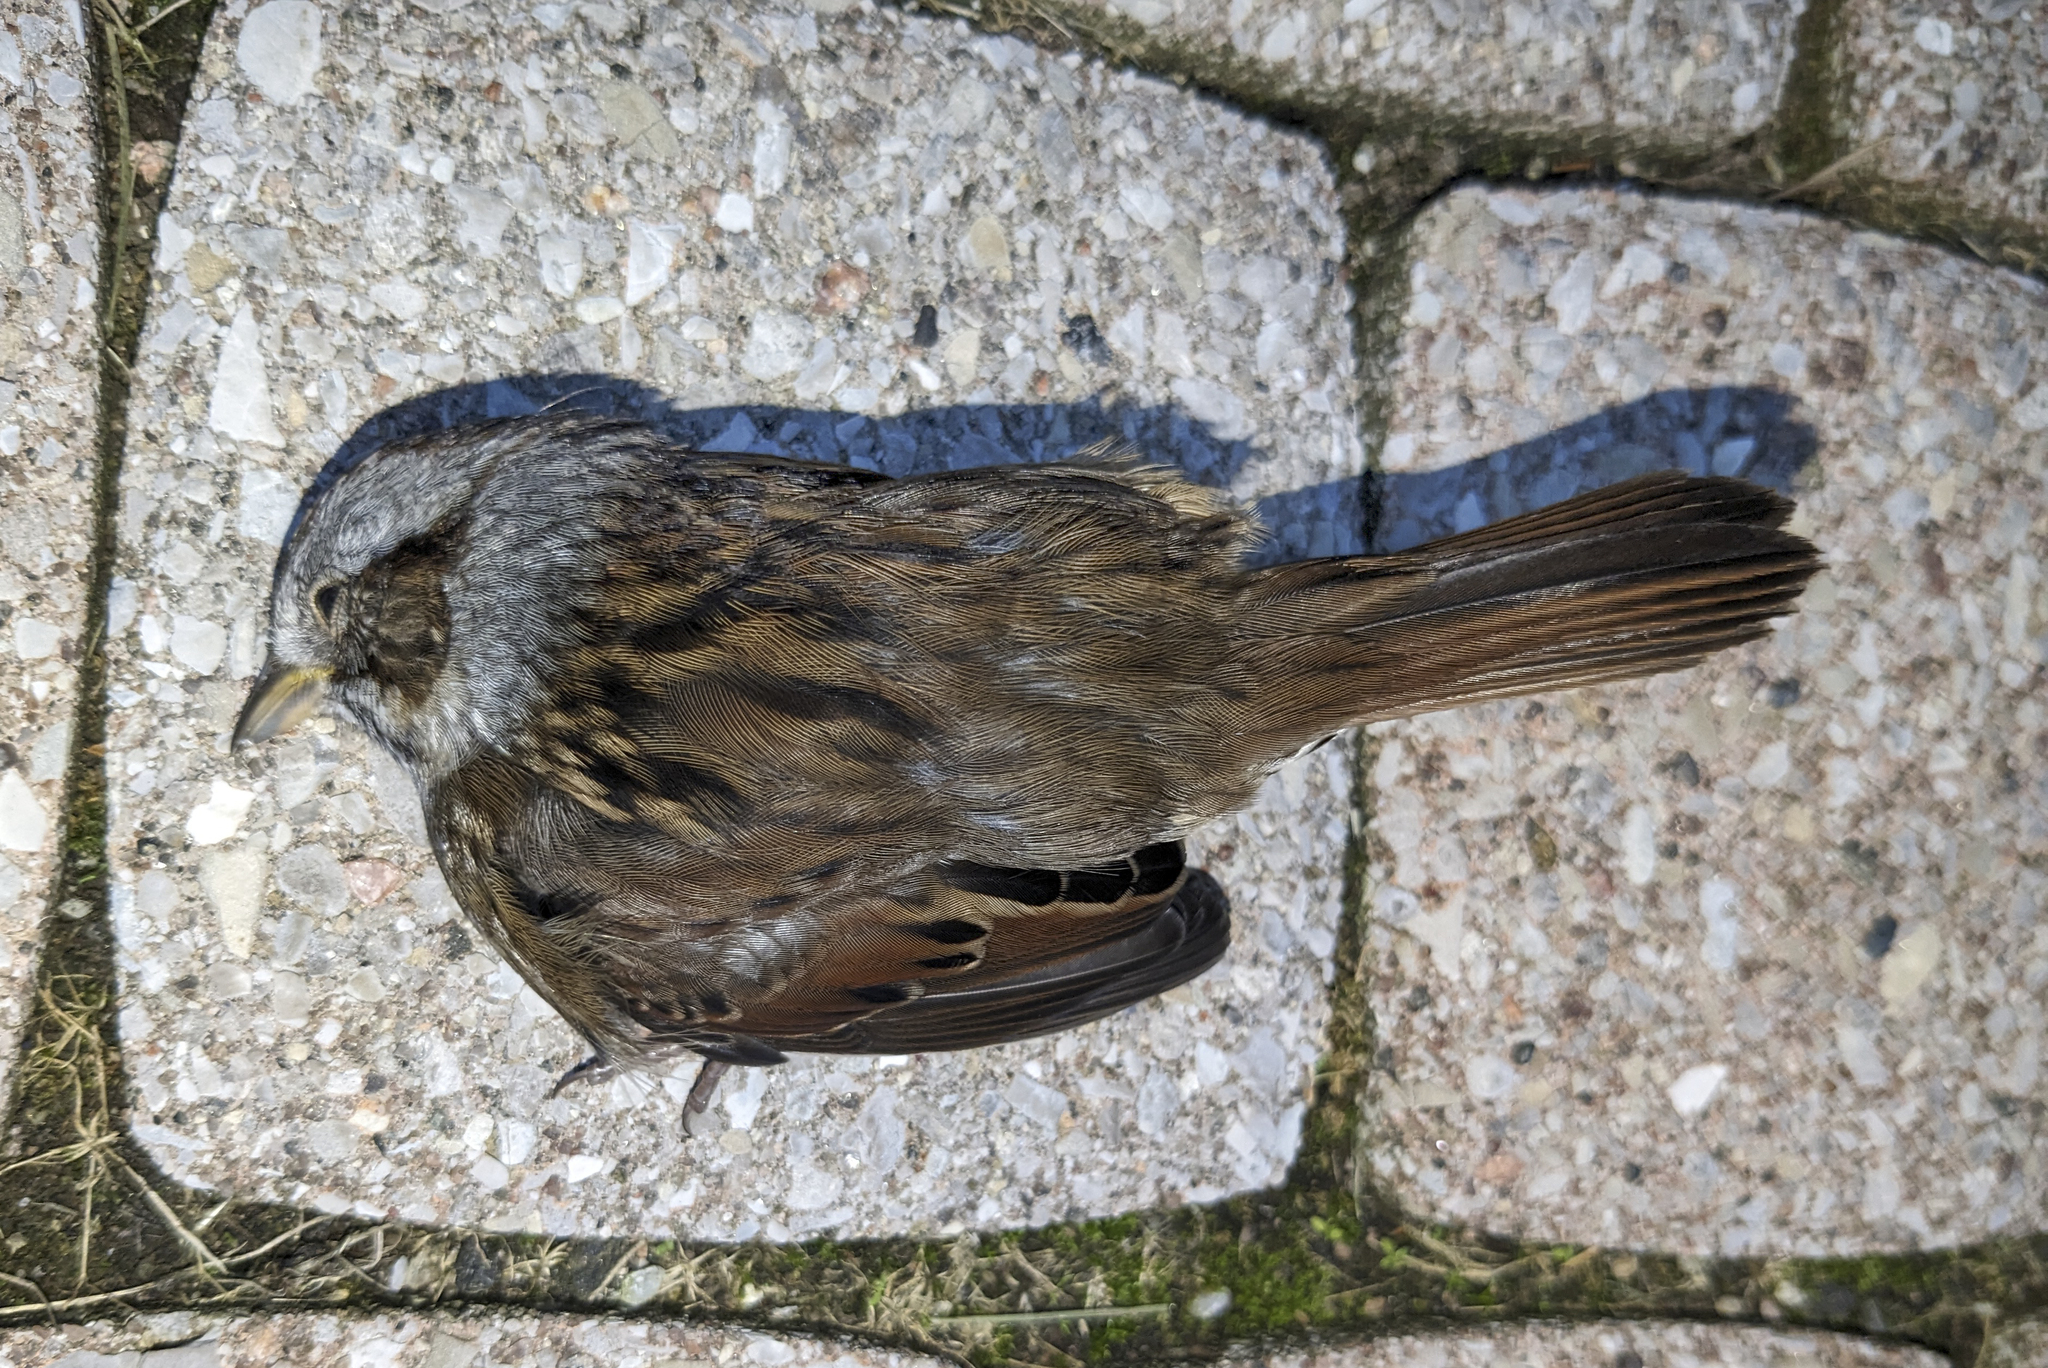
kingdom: Animalia
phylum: Chordata
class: Aves
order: Passeriformes
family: Passerellidae
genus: Melospiza
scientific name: Melospiza georgiana
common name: Swamp sparrow
